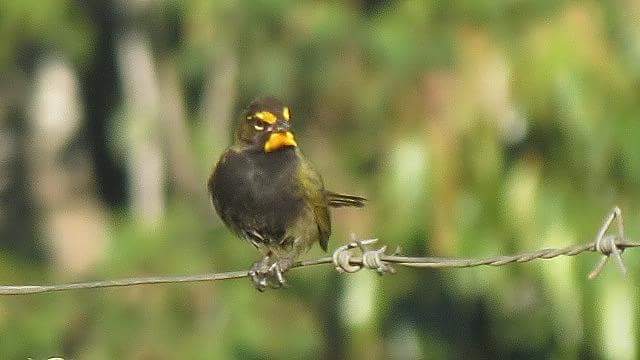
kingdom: Animalia
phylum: Chordata
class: Aves
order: Passeriformes
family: Thraupidae
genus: Tiaris
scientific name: Tiaris olivaceus
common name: Yellow-faced grassquit
